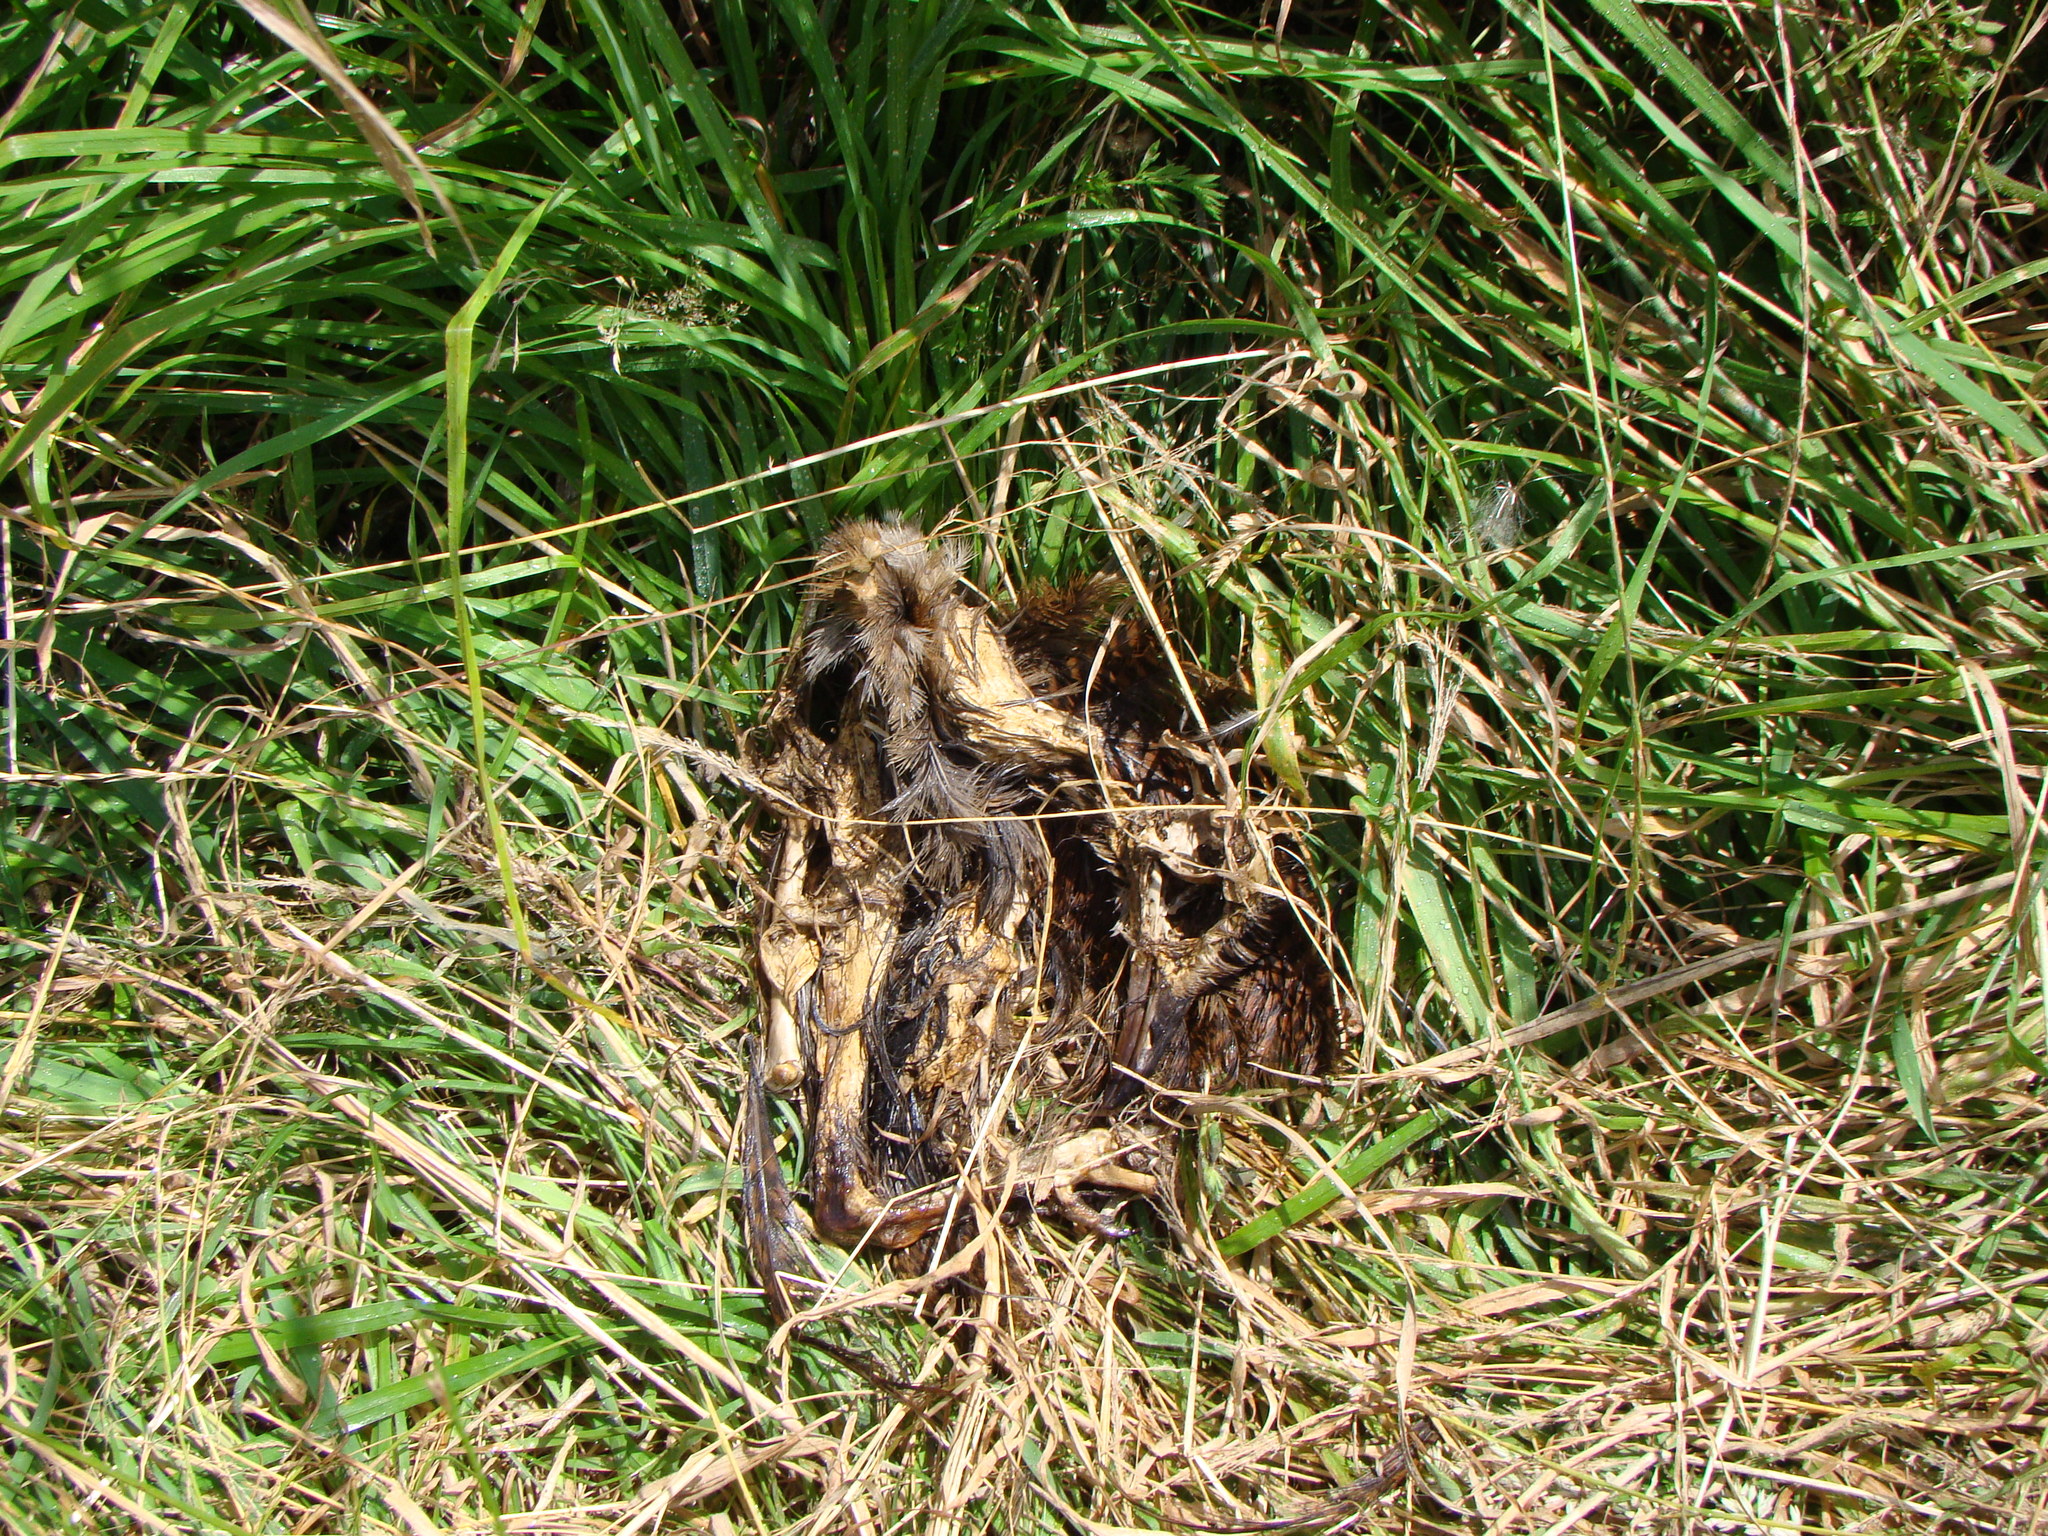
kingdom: Animalia
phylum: Chordata
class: Aves
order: Gruiformes
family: Rallidae
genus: Gallirallus
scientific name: Gallirallus australis
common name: Weka
